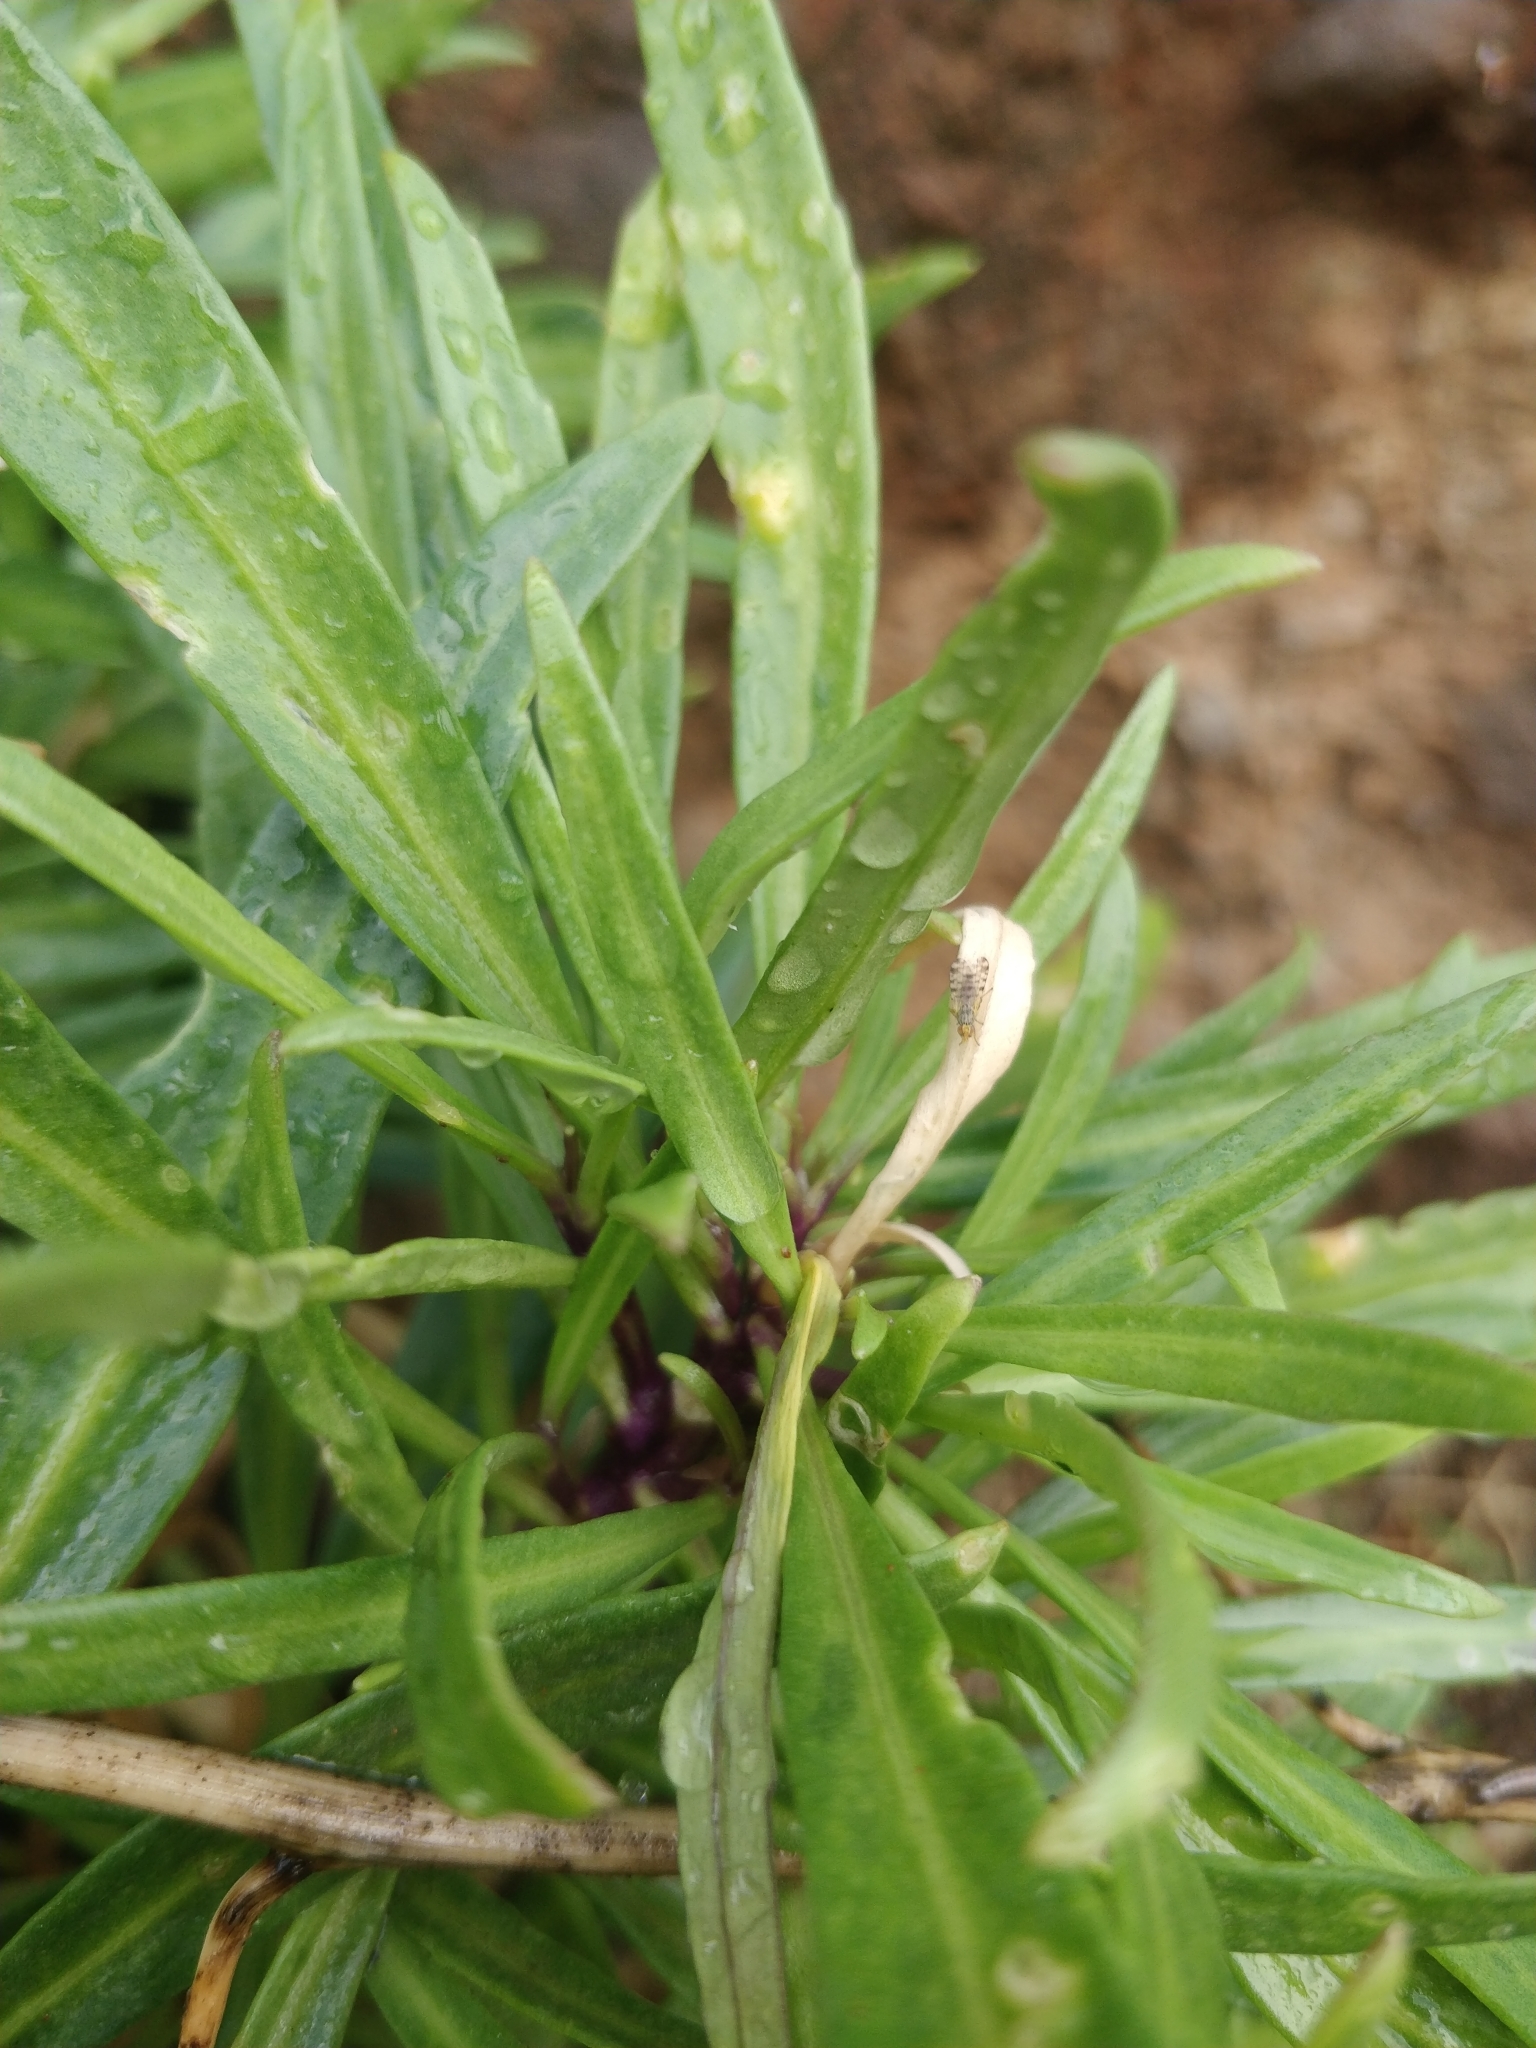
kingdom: Plantae
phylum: Tracheophyta
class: Magnoliopsida
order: Brassicales
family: Brassicaceae
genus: Sinapidendron
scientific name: Sinapidendron angustifolium
